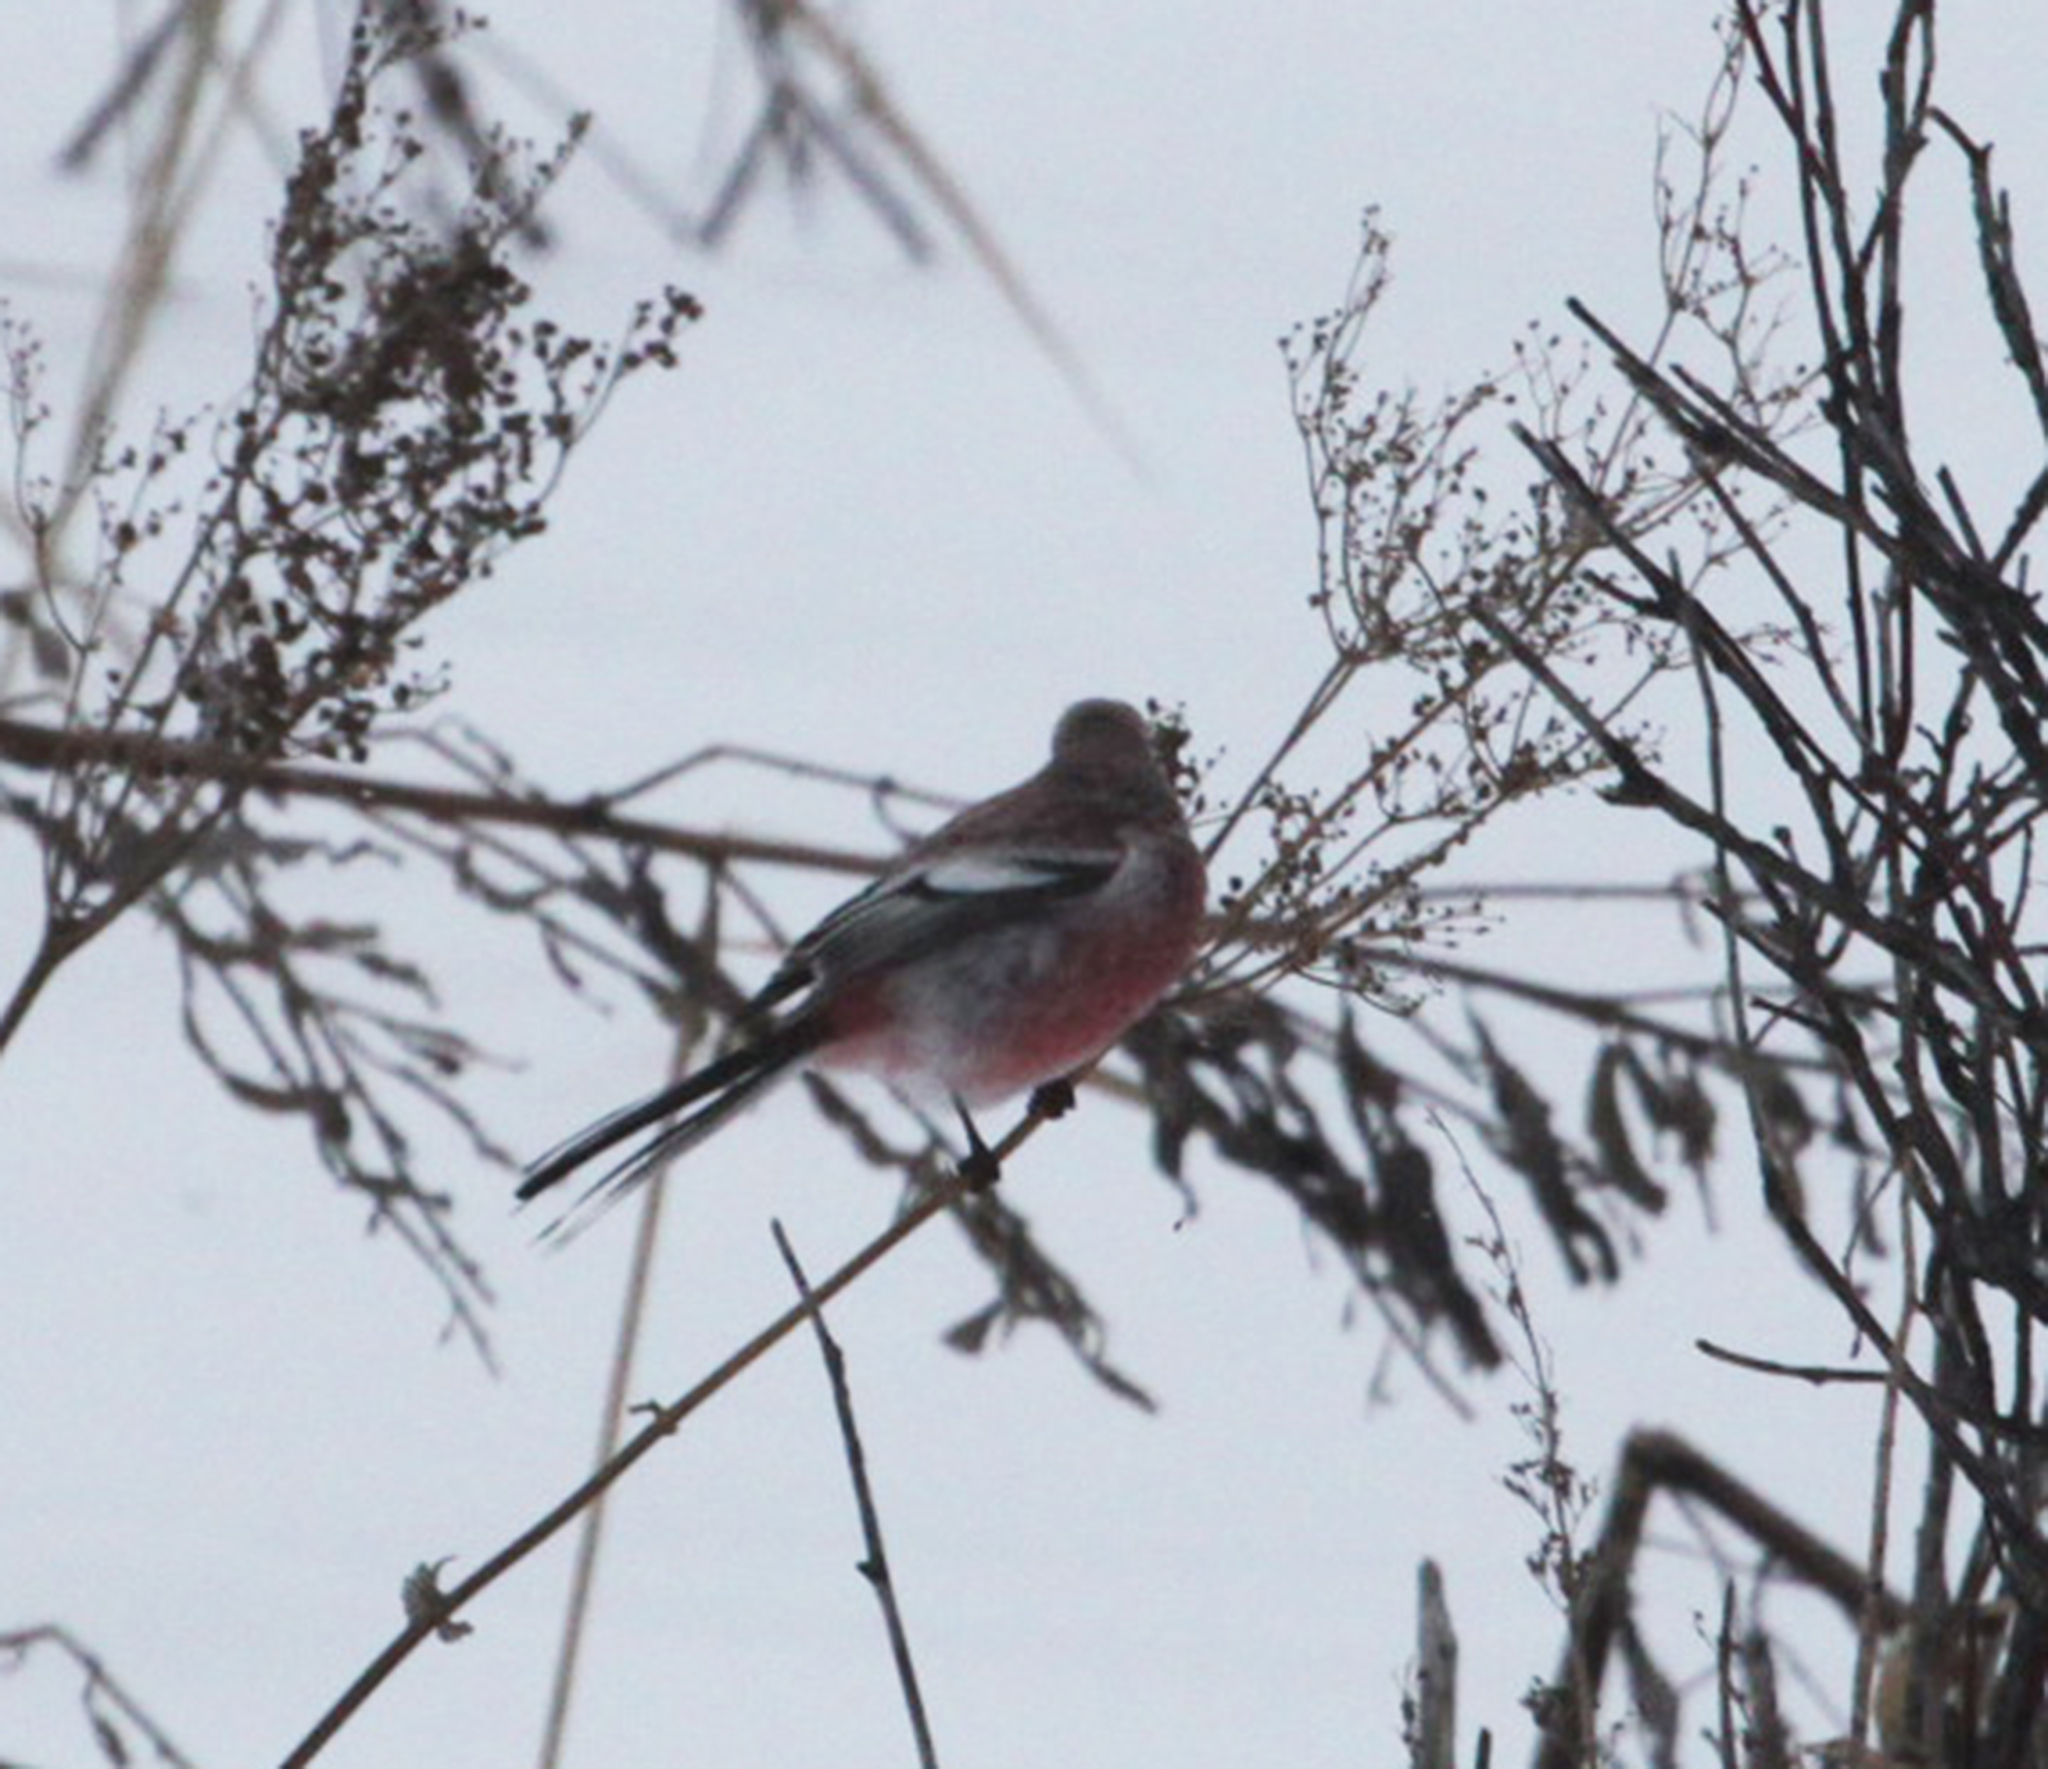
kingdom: Animalia
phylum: Chordata
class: Aves
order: Passeriformes
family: Fringillidae
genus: Carpodacus
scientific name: Carpodacus sibiricus
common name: Long-tailed rosefinch
